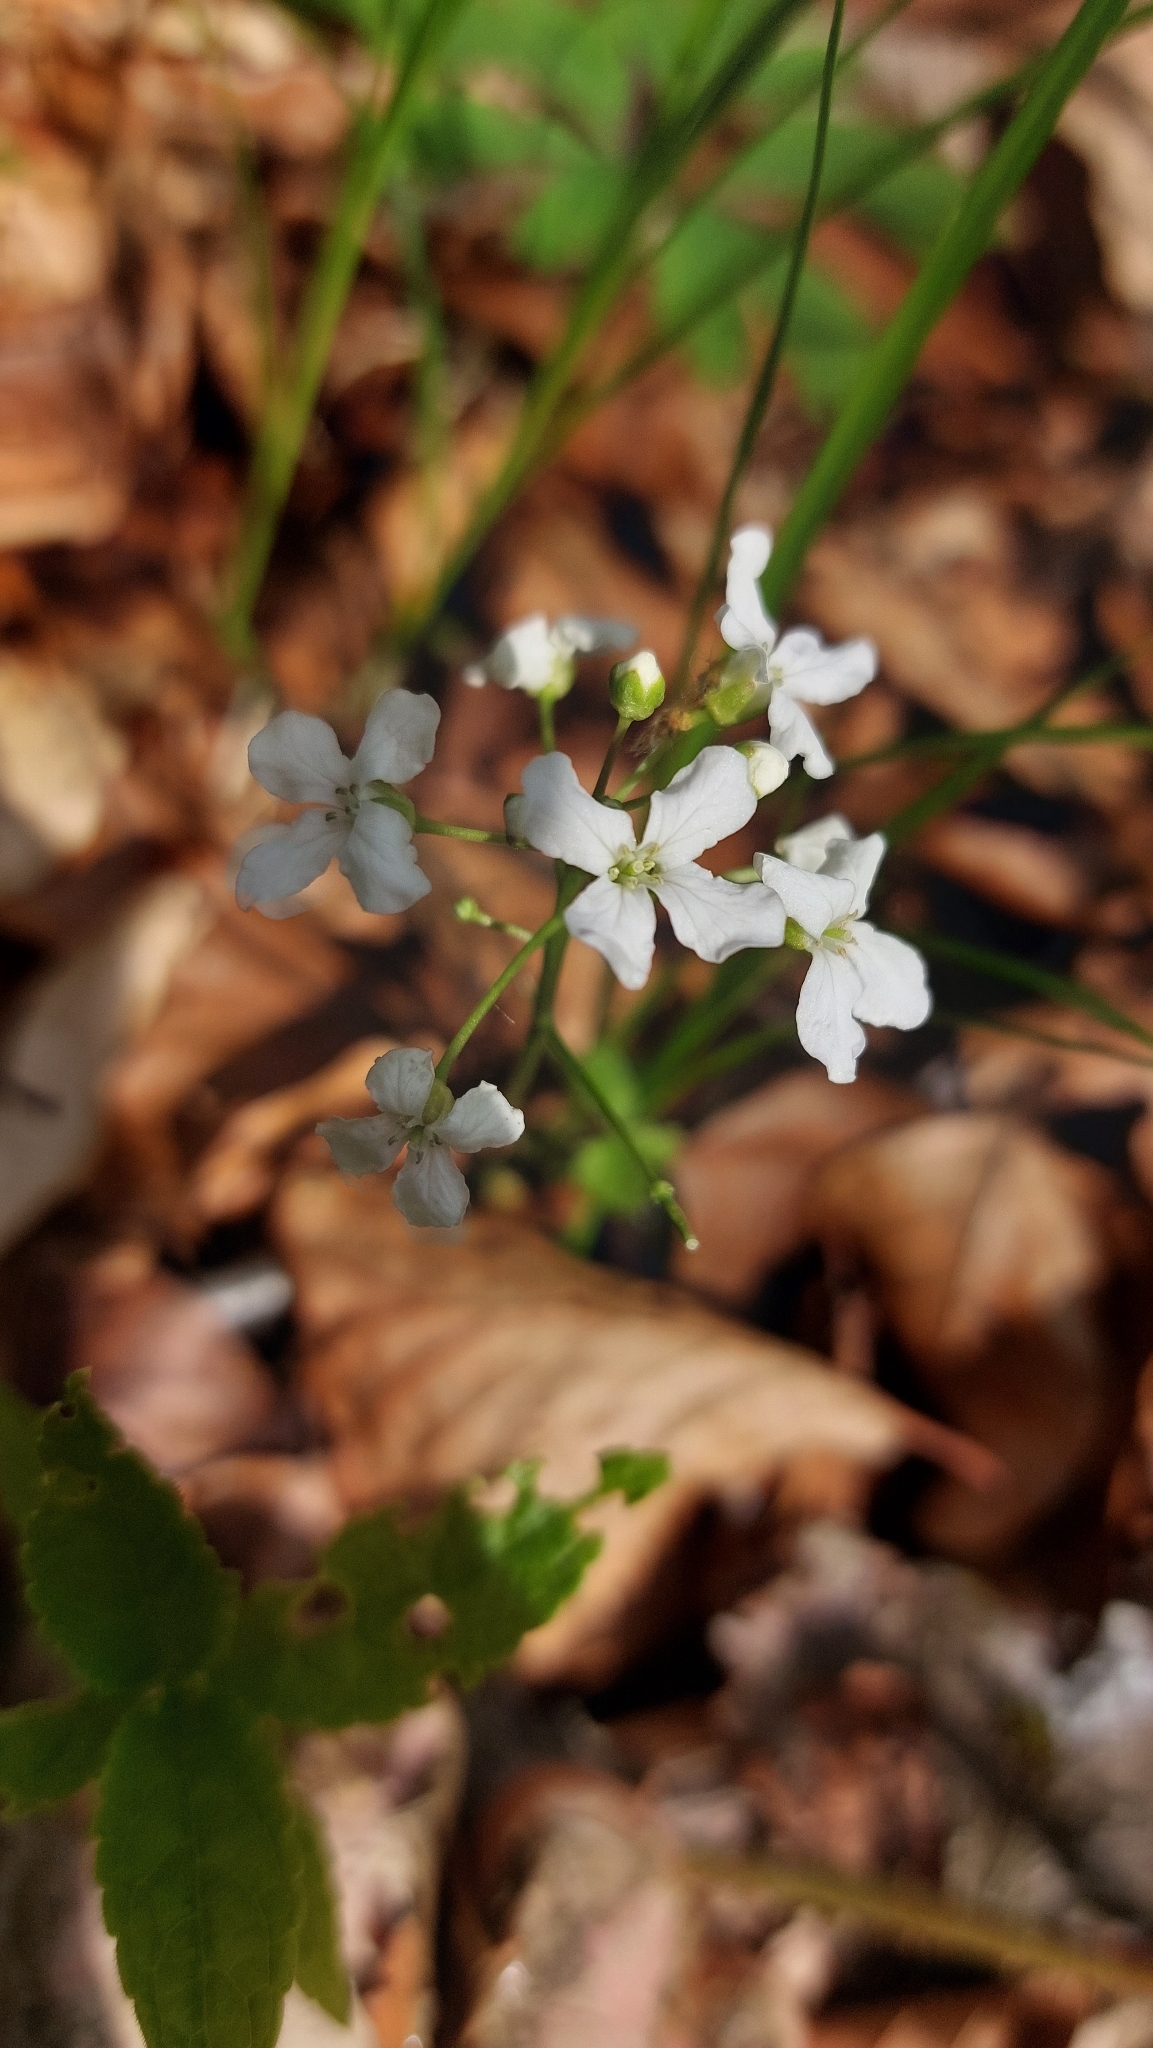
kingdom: Plantae
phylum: Tracheophyta
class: Magnoliopsida
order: Brassicales
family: Brassicaceae
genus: Cardamine
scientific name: Cardamine trifolia
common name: Trefoil cress
